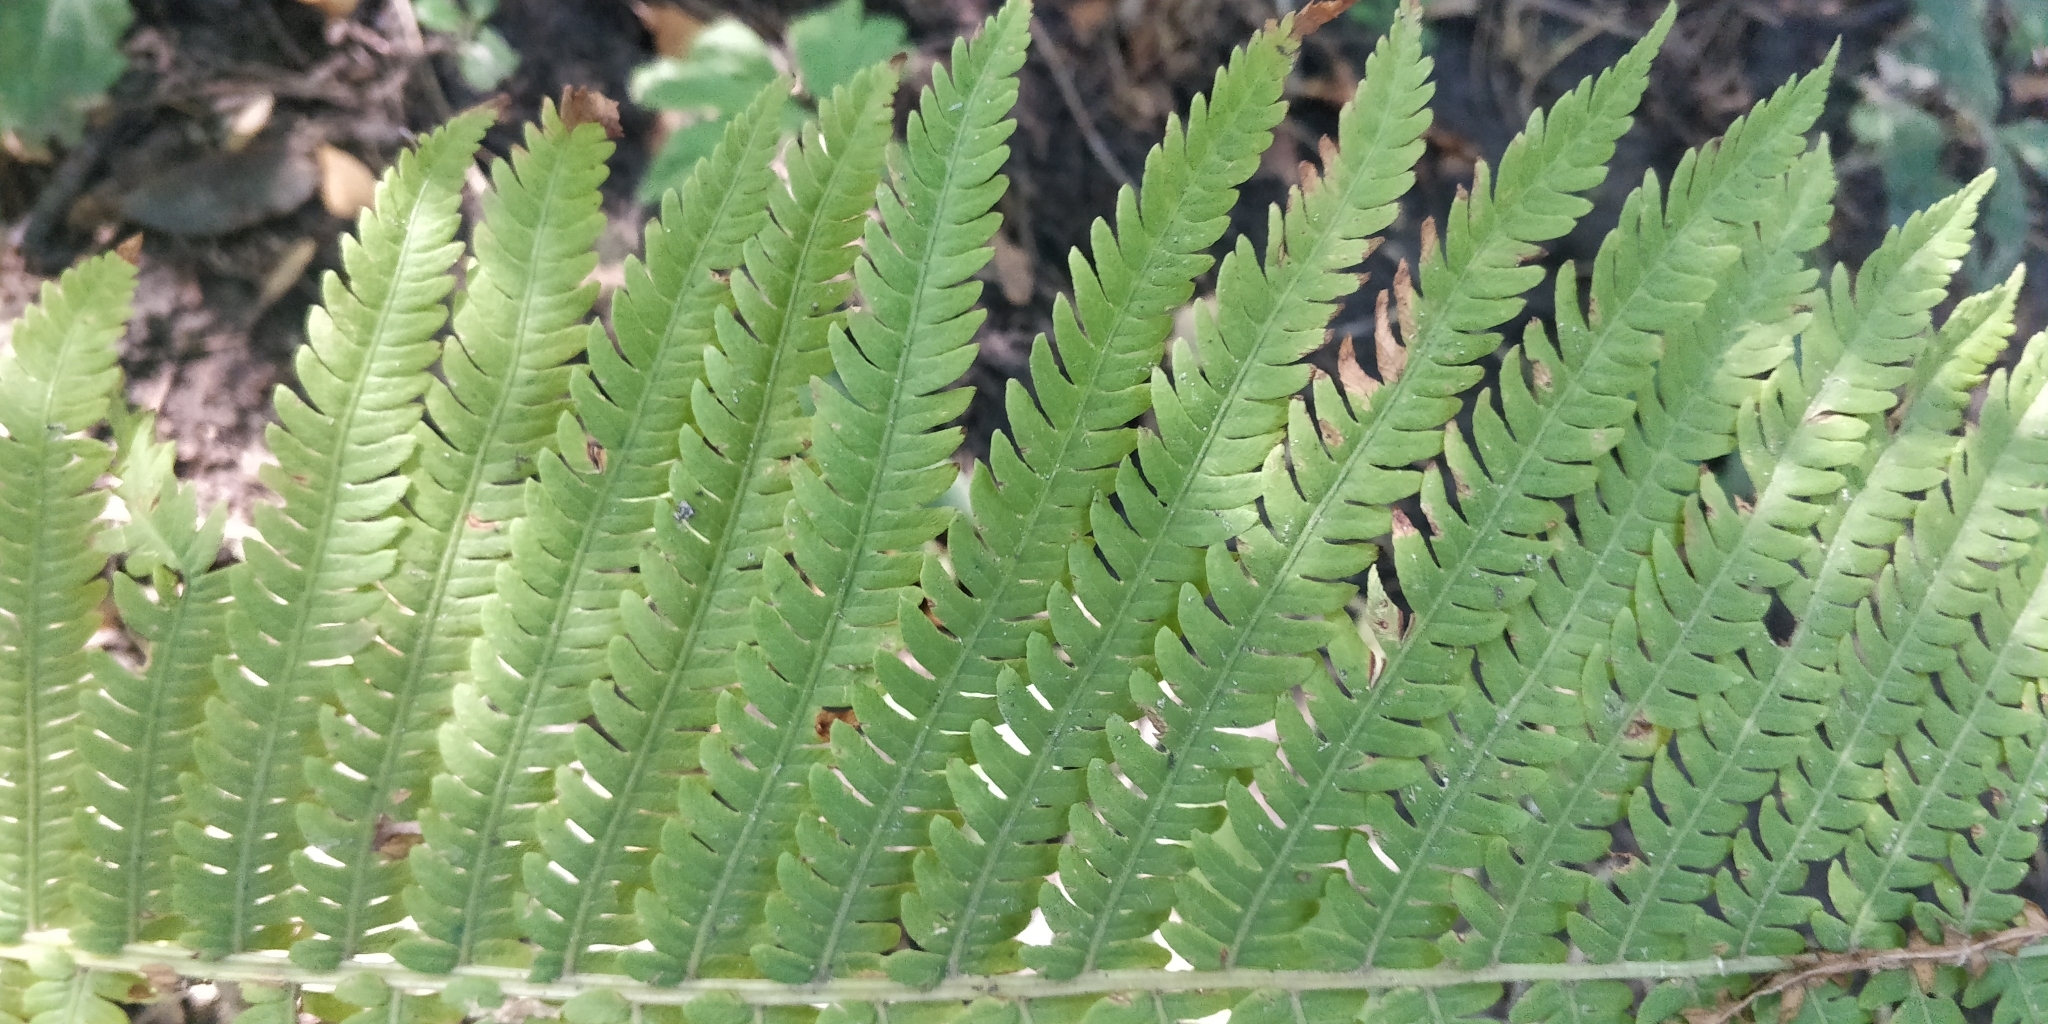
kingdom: Plantae
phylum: Tracheophyta
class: Polypodiopsida
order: Polypodiales
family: Onocleaceae
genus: Matteuccia
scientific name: Matteuccia struthiopteris
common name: Ostrich fern
